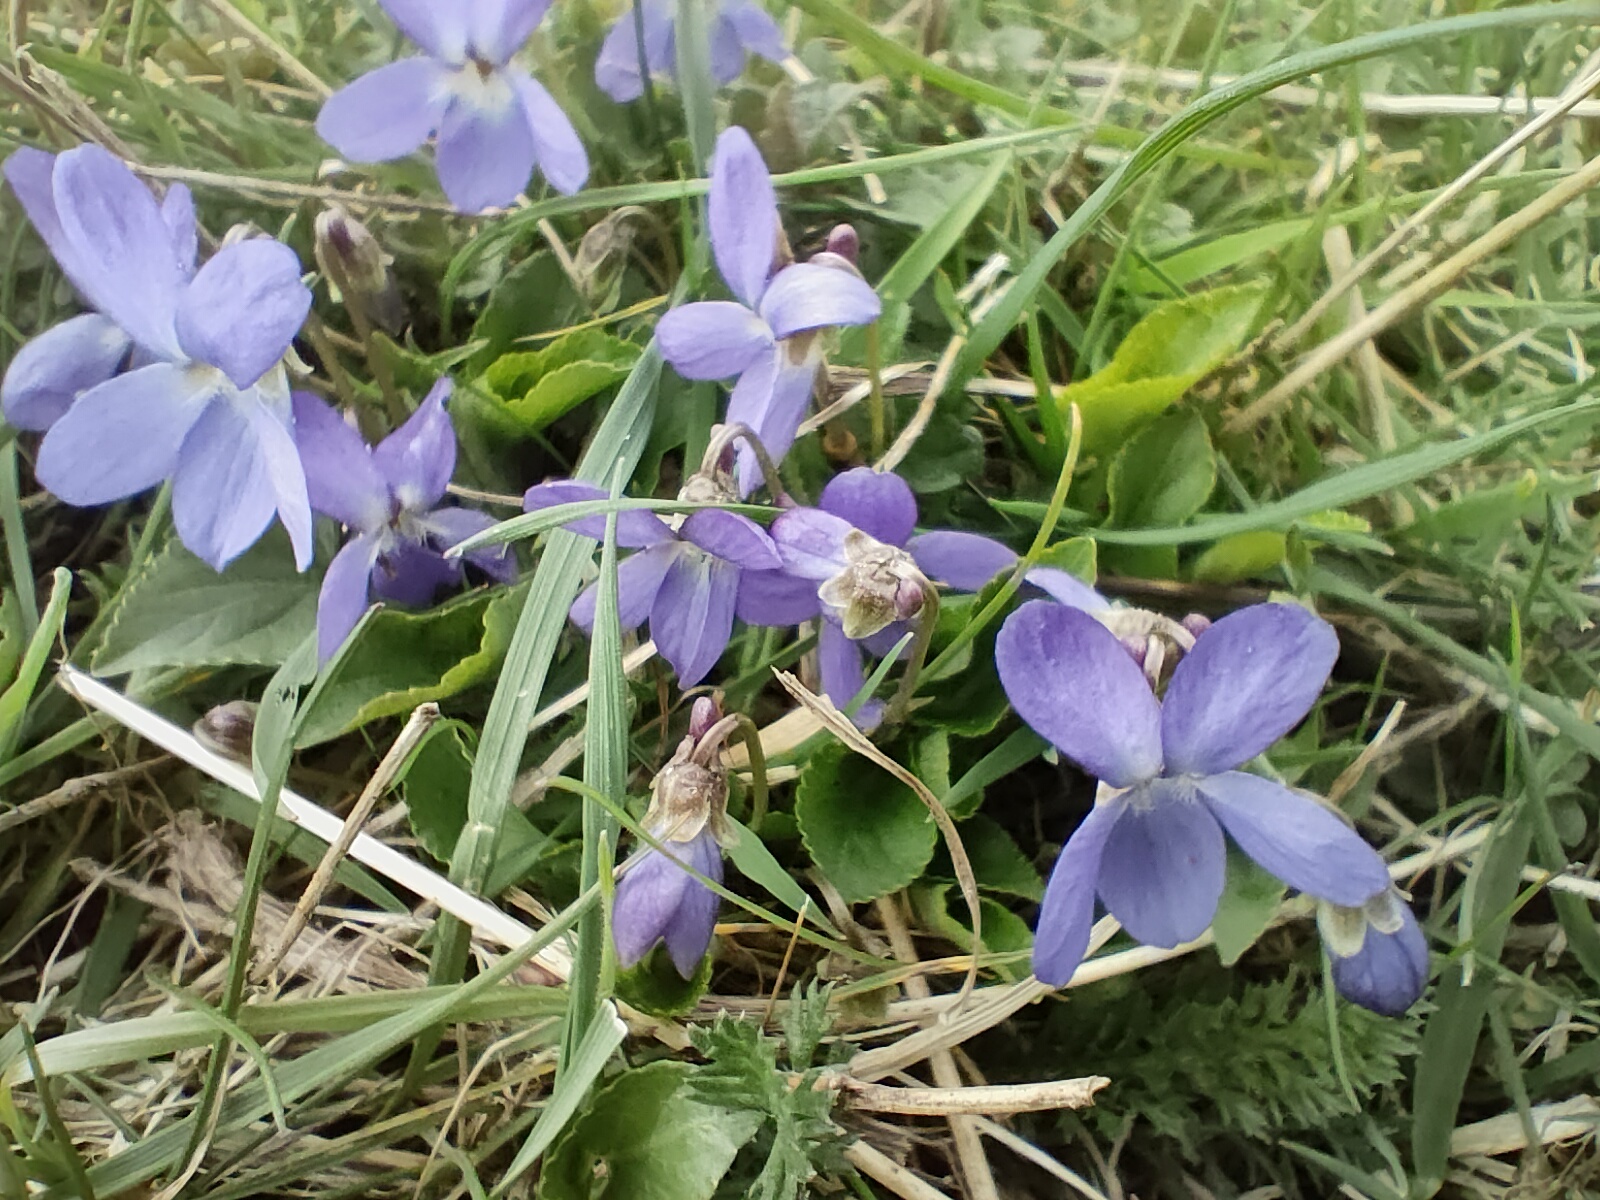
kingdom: Plantae
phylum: Tracheophyta
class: Magnoliopsida
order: Malpighiales
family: Violaceae
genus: Viola
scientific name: Viola hirta
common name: Hairy violet
